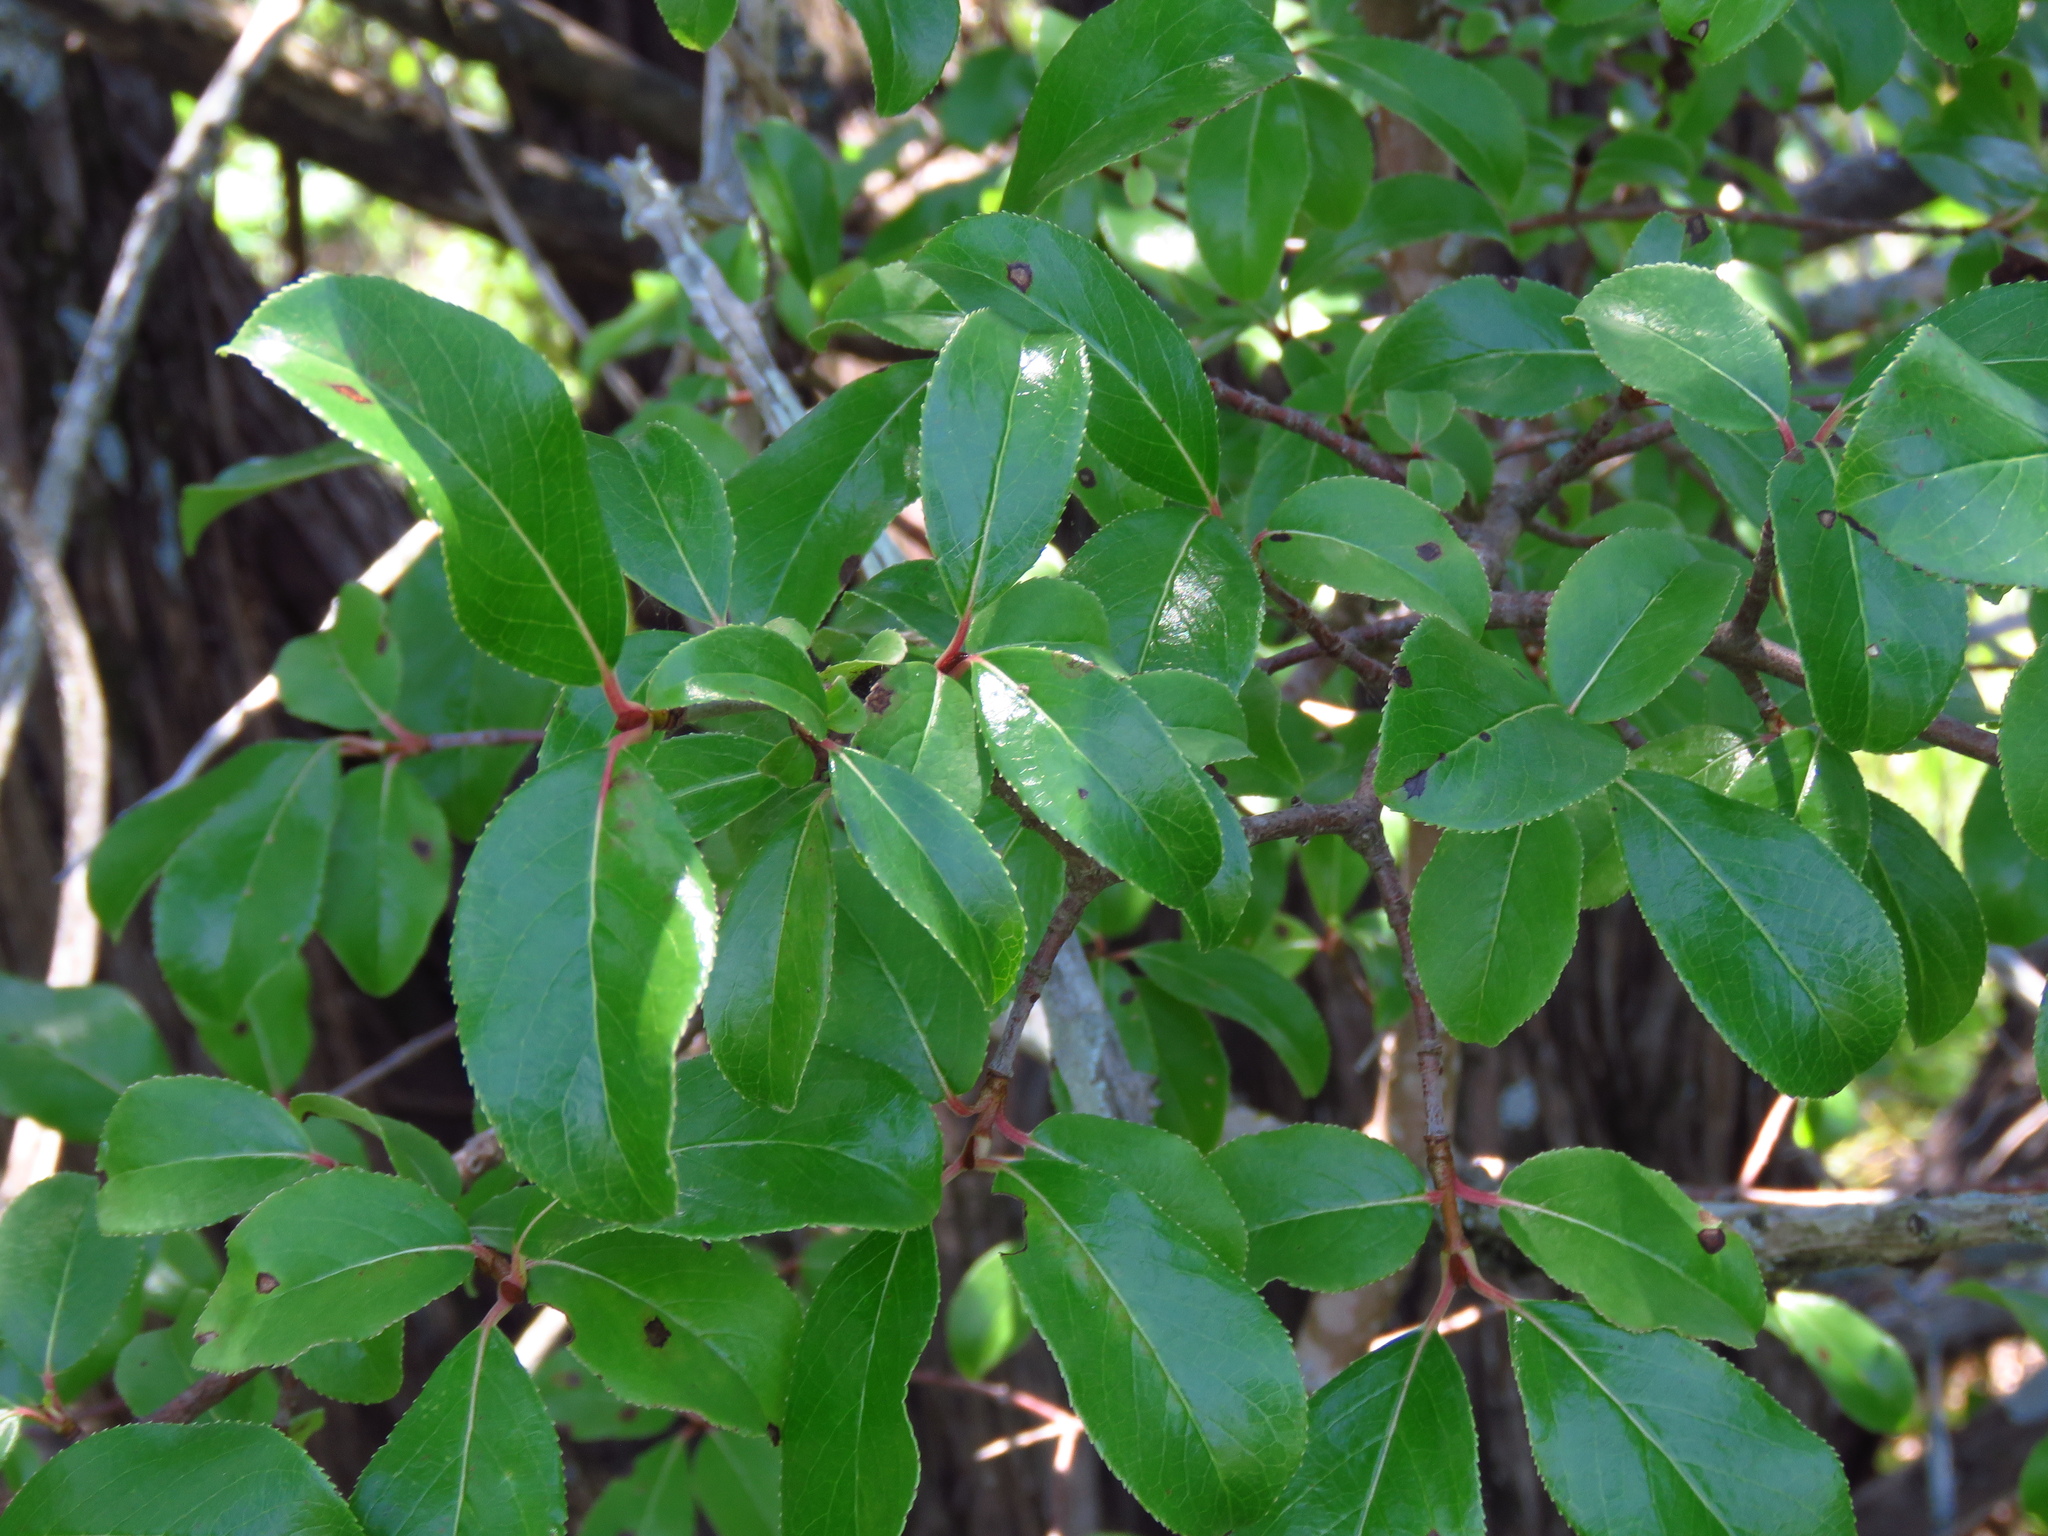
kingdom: Plantae
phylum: Tracheophyta
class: Magnoliopsida
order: Dipsacales
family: Viburnaceae
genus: Viburnum
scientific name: Viburnum rufidulum
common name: Blue haw
